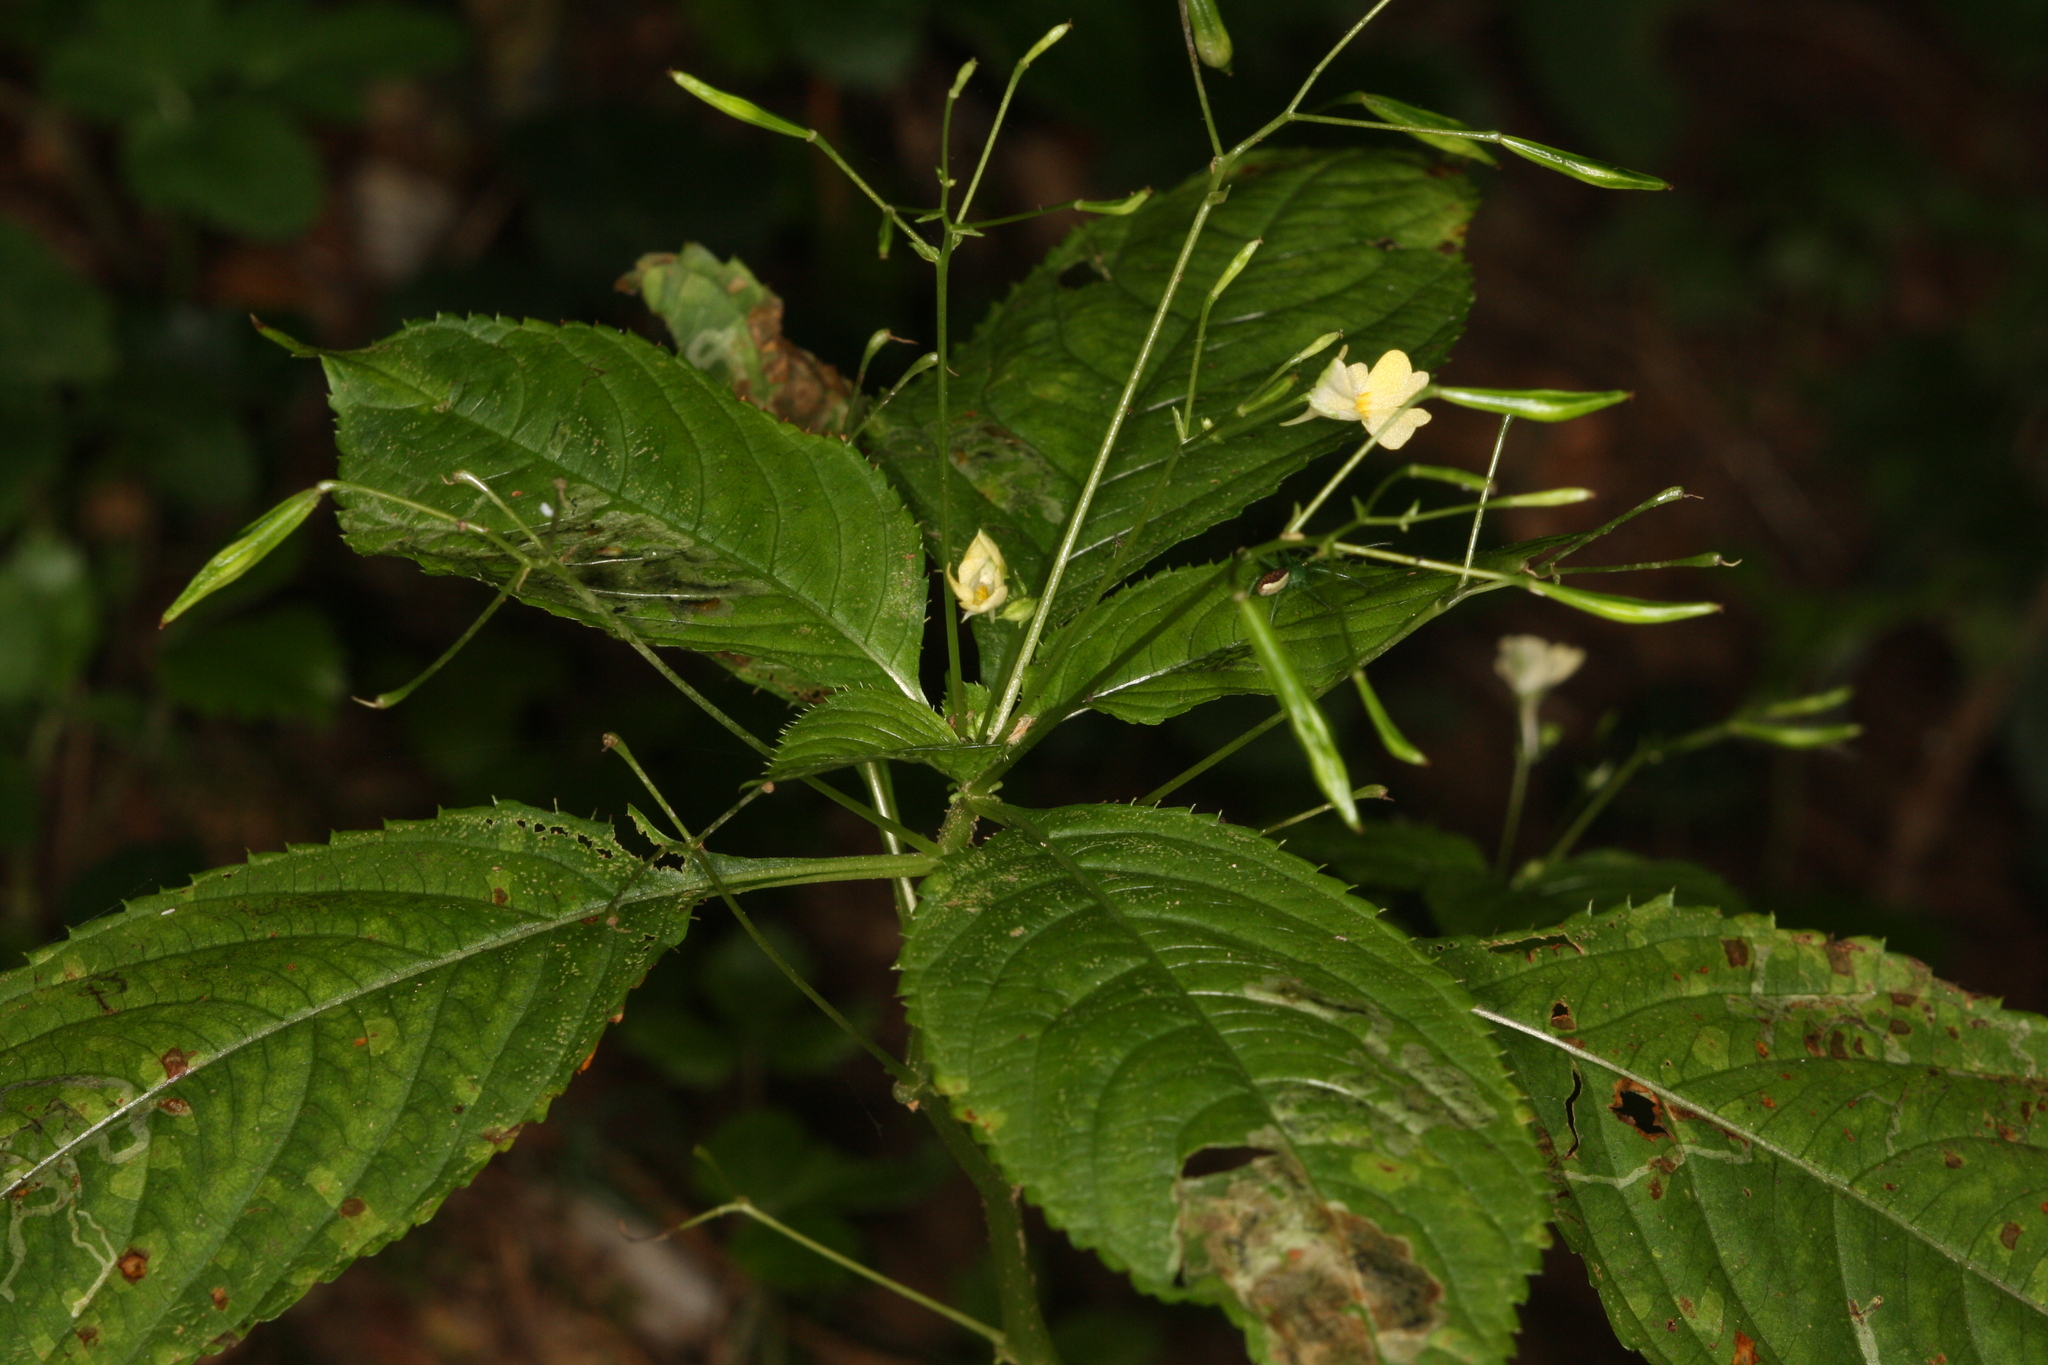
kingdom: Animalia
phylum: Arthropoda
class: Insecta
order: Diptera
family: Agromyzidae
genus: Phytoliriomyza
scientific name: Phytoliriomyza melampyga
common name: Jewelweed leaf-miner fly
